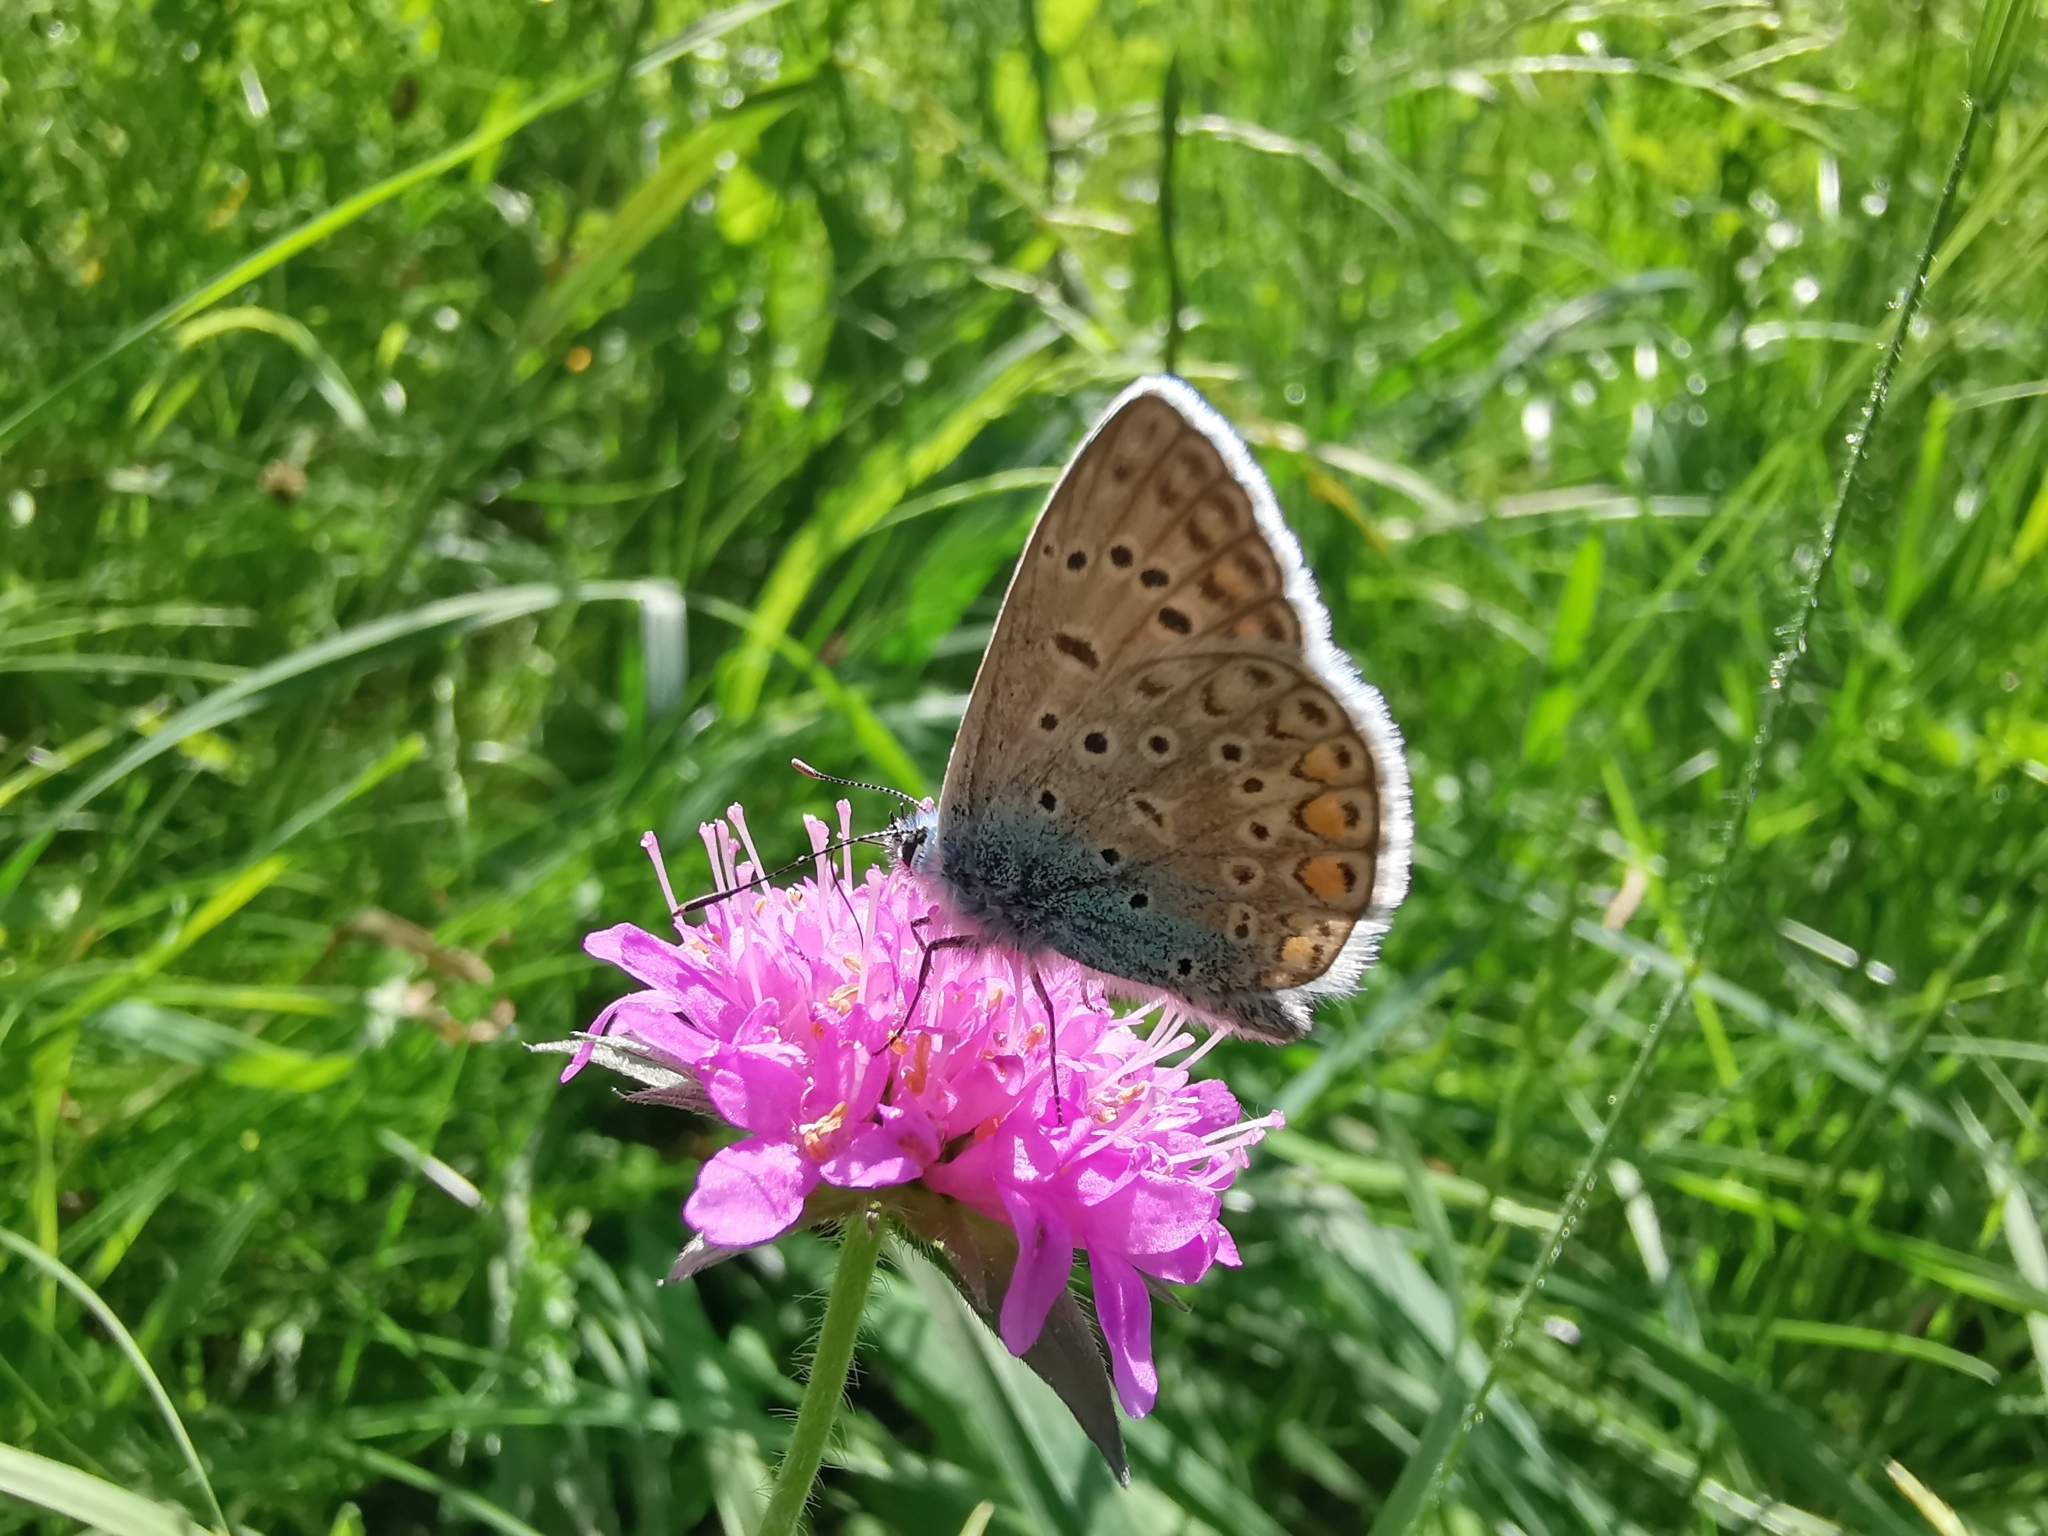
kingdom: Animalia
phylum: Arthropoda
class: Insecta
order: Lepidoptera
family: Lycaenidae
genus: Polyommatus
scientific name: Polyommatus icarus
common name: Common blue
